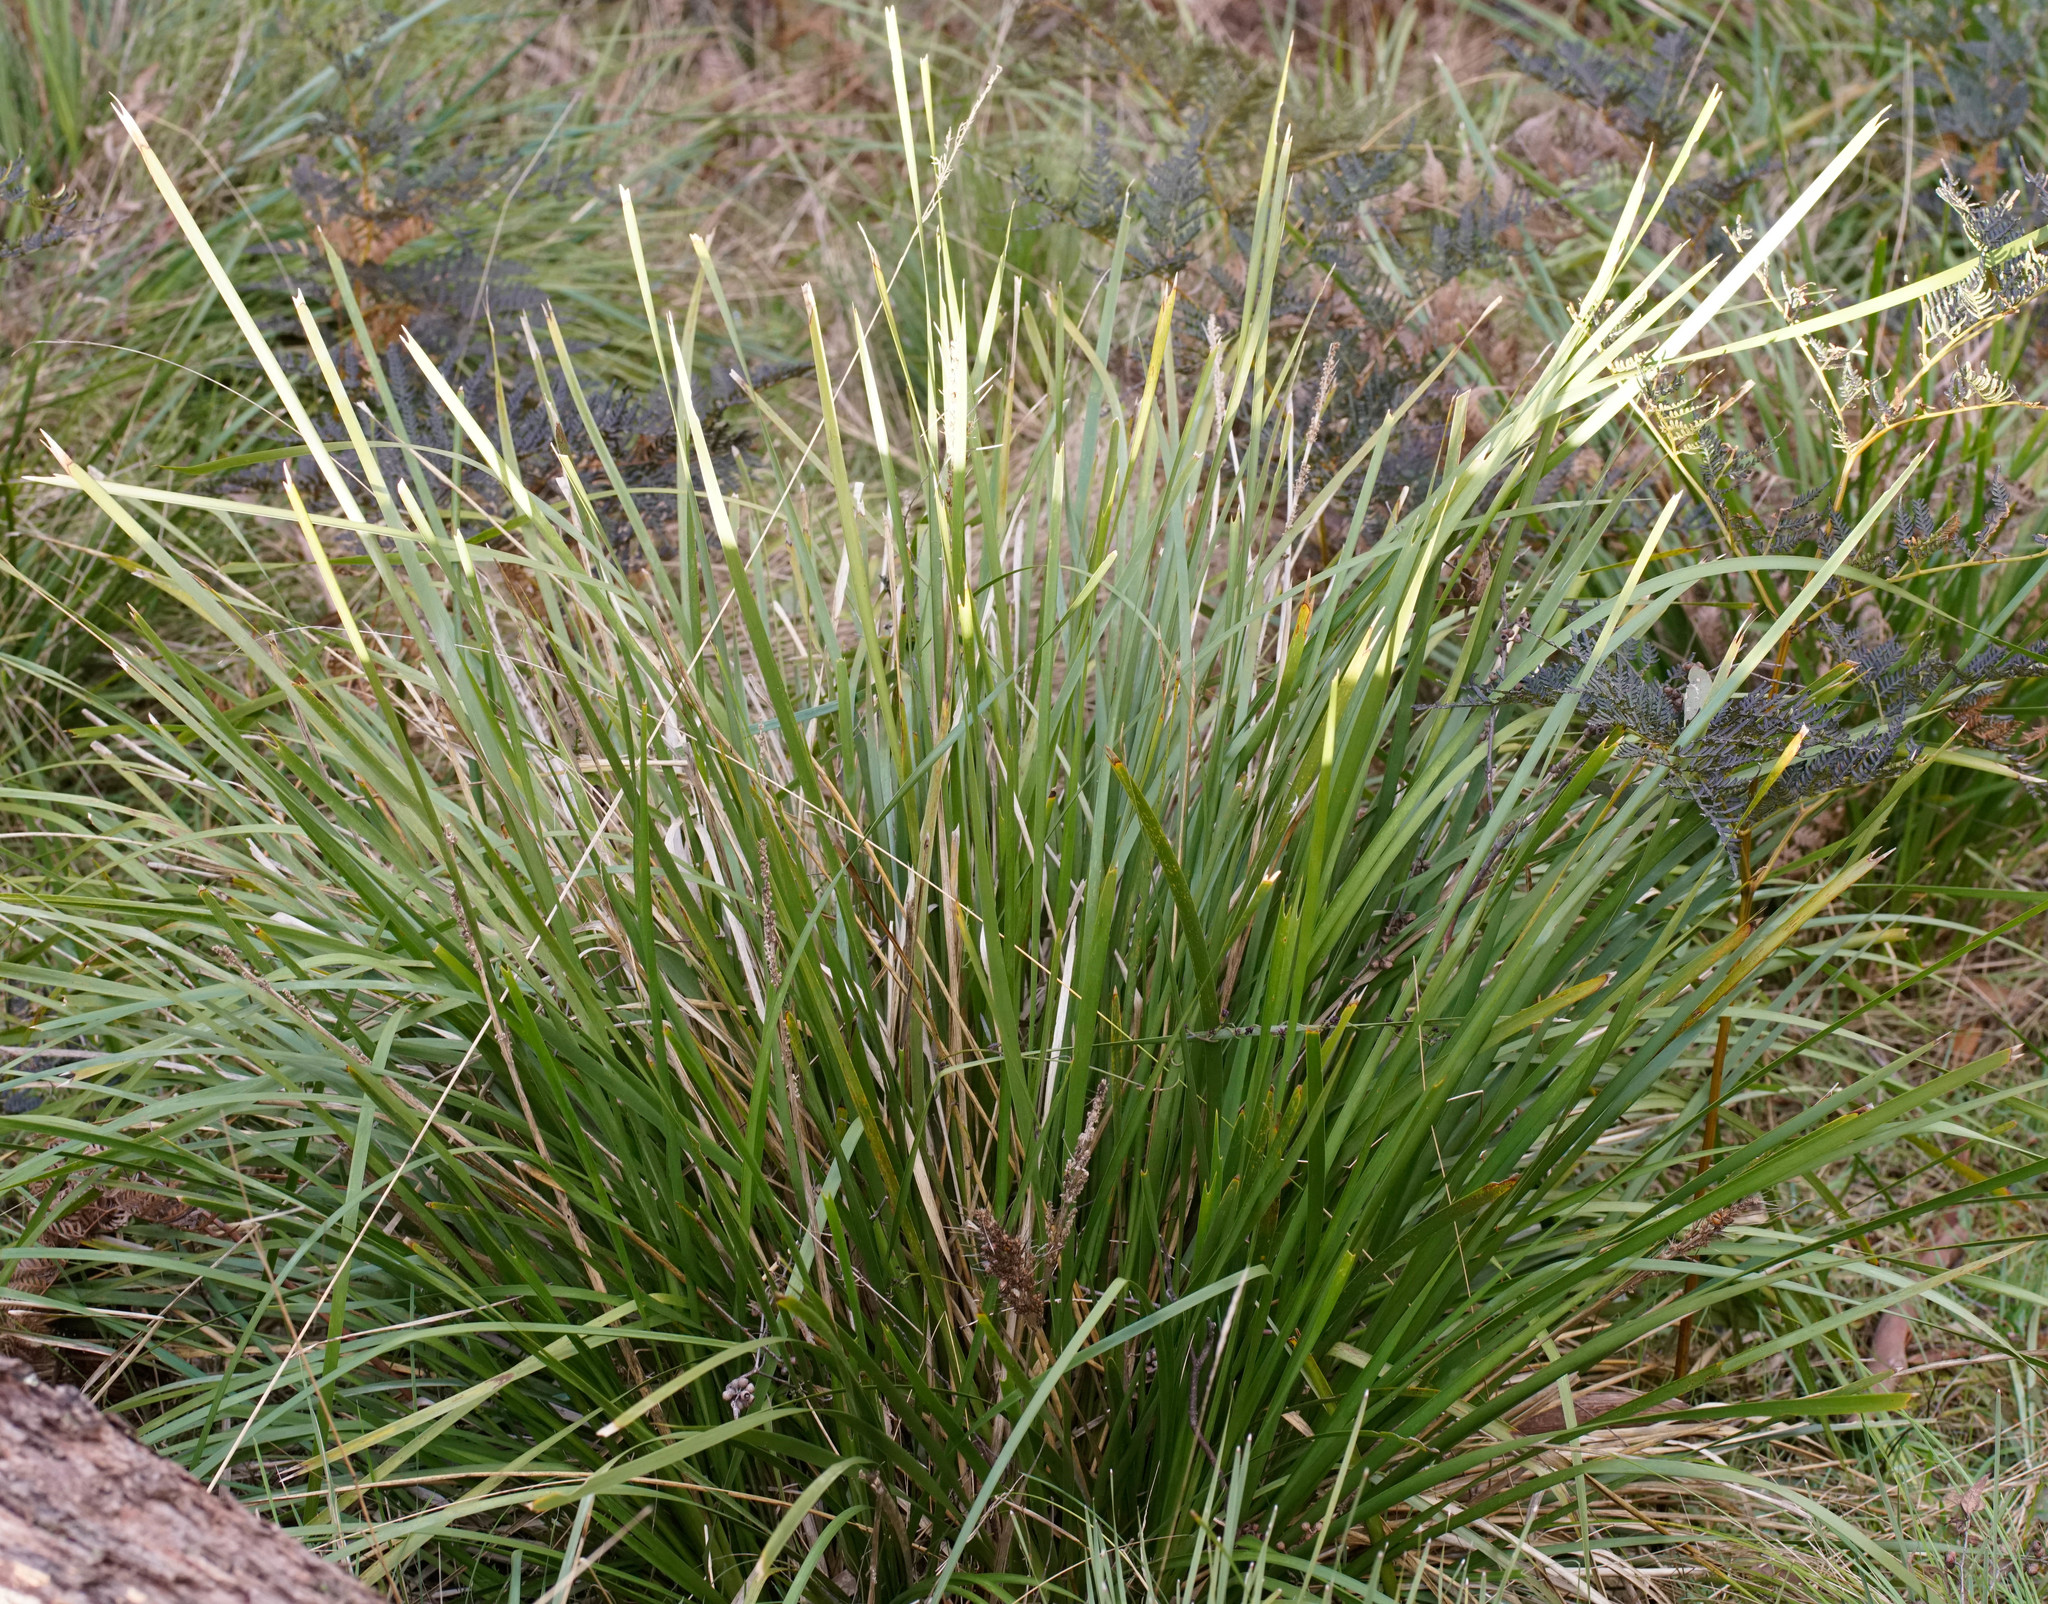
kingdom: Plantae
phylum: Tracheophyta
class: Liliopsida
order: Asparagales
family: Asparagaceae
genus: Lomandra
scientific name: Lomandra longifolia
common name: Longleaf mat-rush
